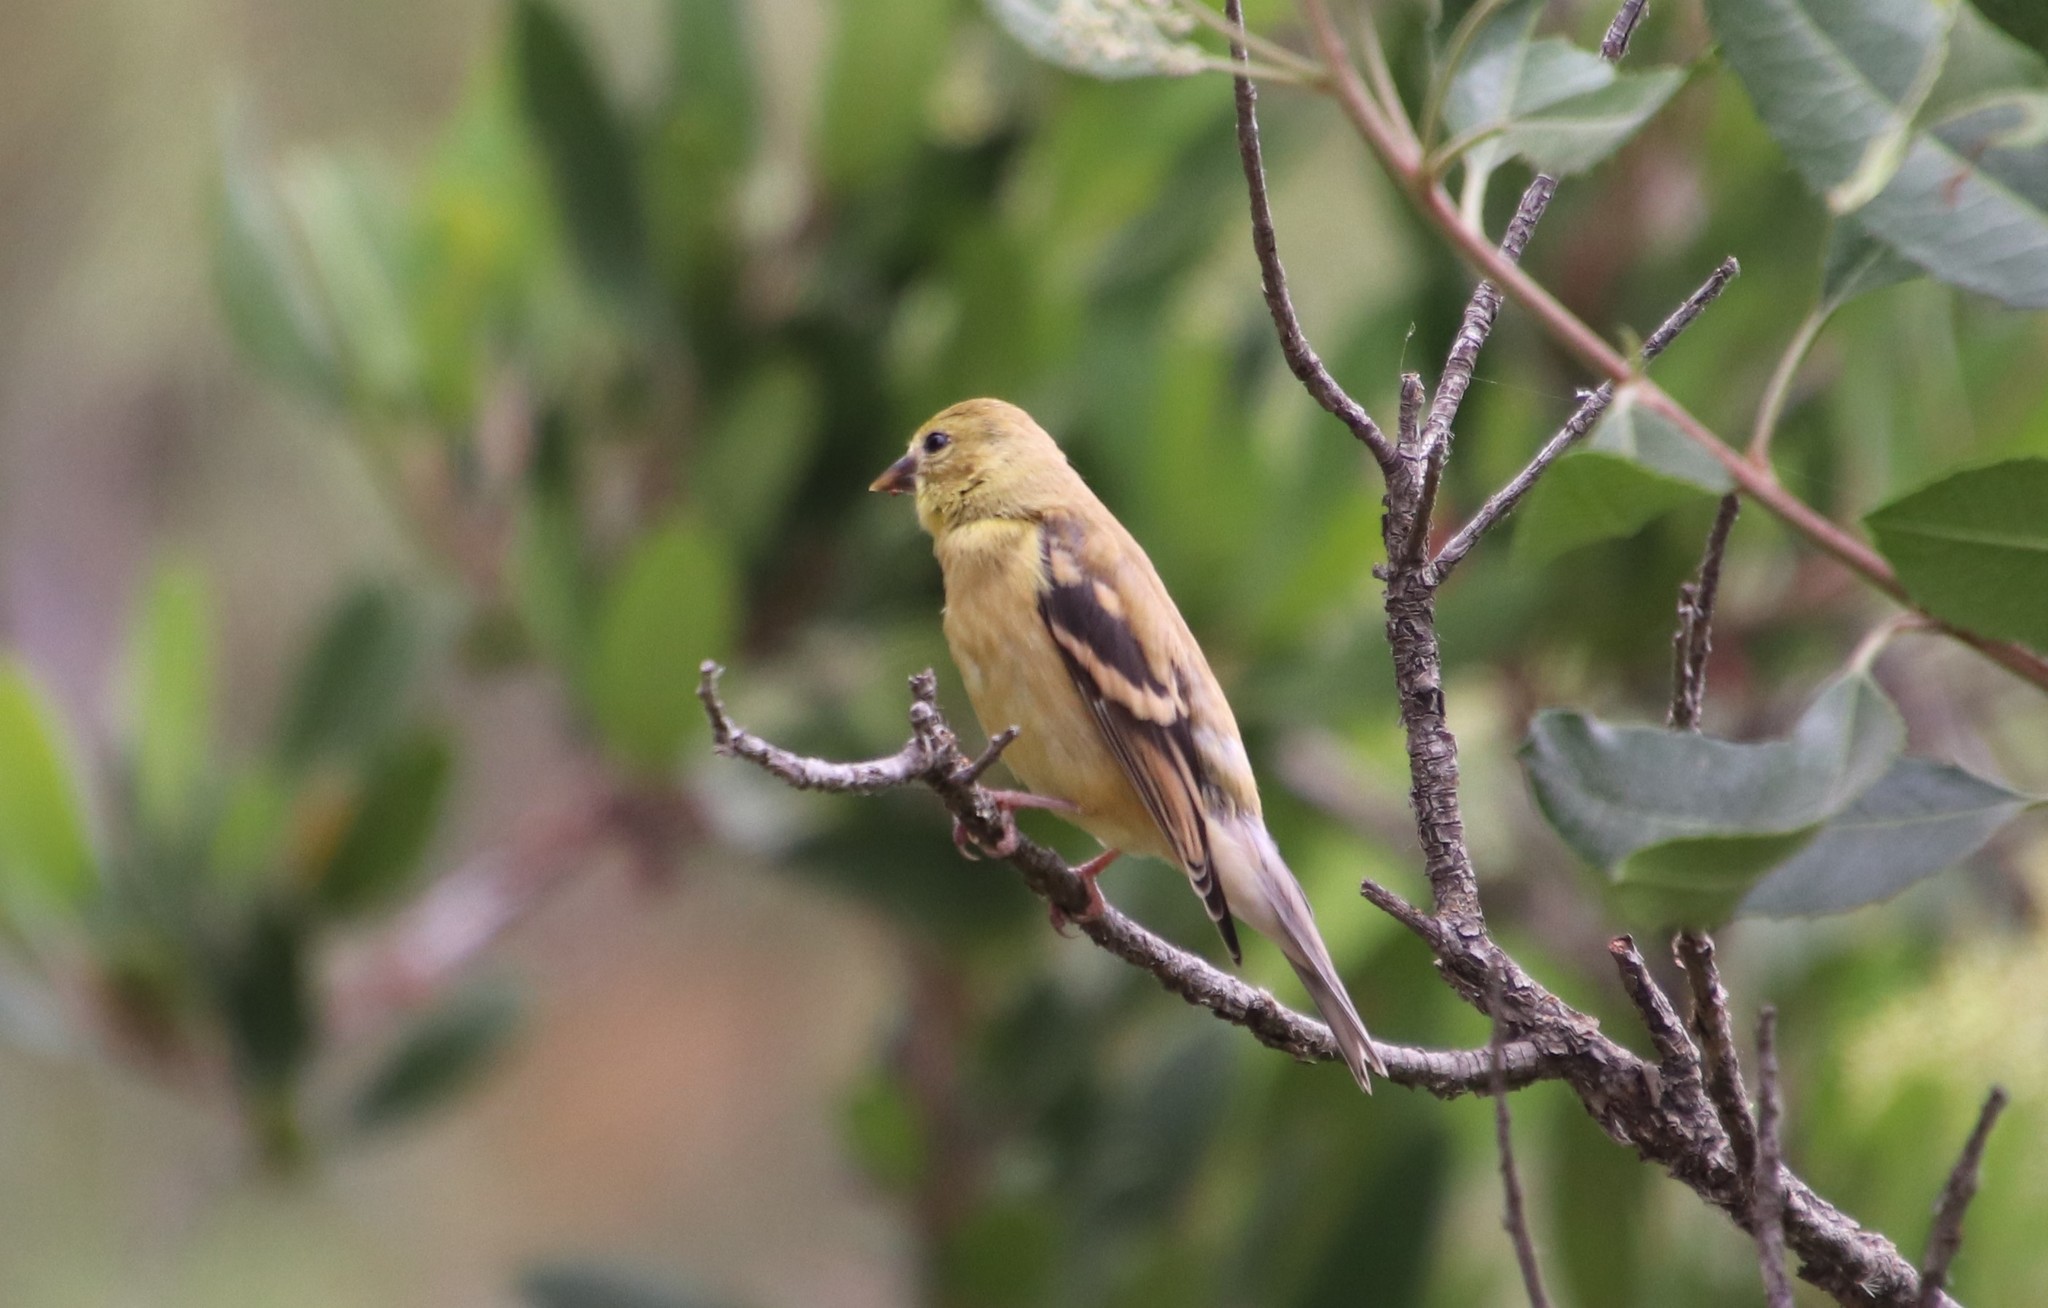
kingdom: Animalia
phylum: Chordata
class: Aves
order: Passeriformes
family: Fringillidae
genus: Spinus
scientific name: Spinus tristis
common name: American goldfinch
